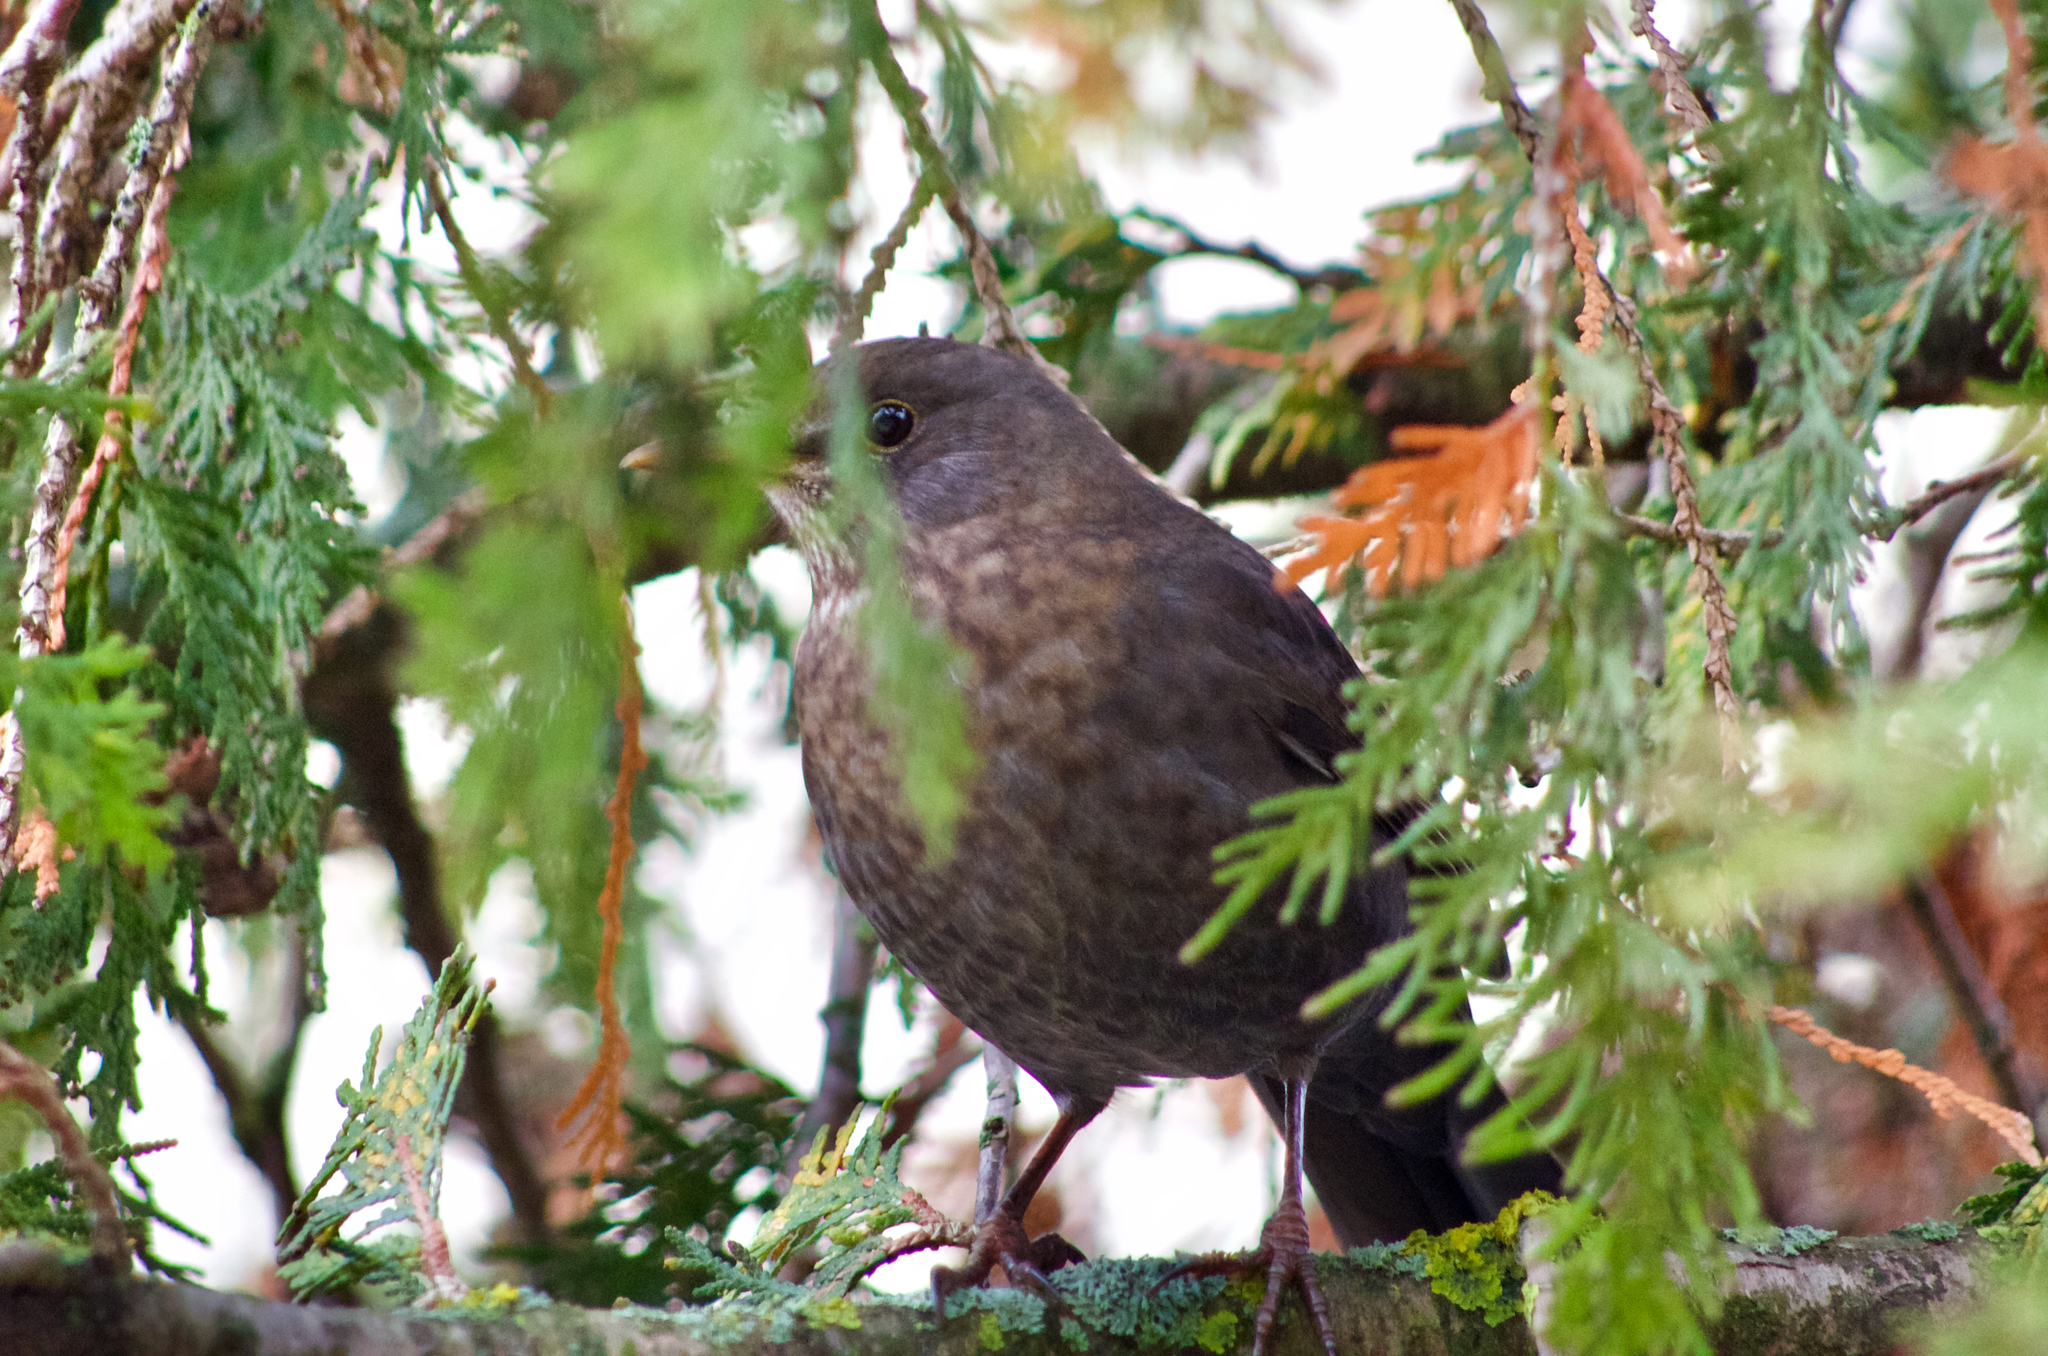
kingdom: Animalia
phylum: Chordata
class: Aves
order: Passeriformes
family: Turdidae
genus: Turdus
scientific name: Turdus merula
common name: Common blackbird
